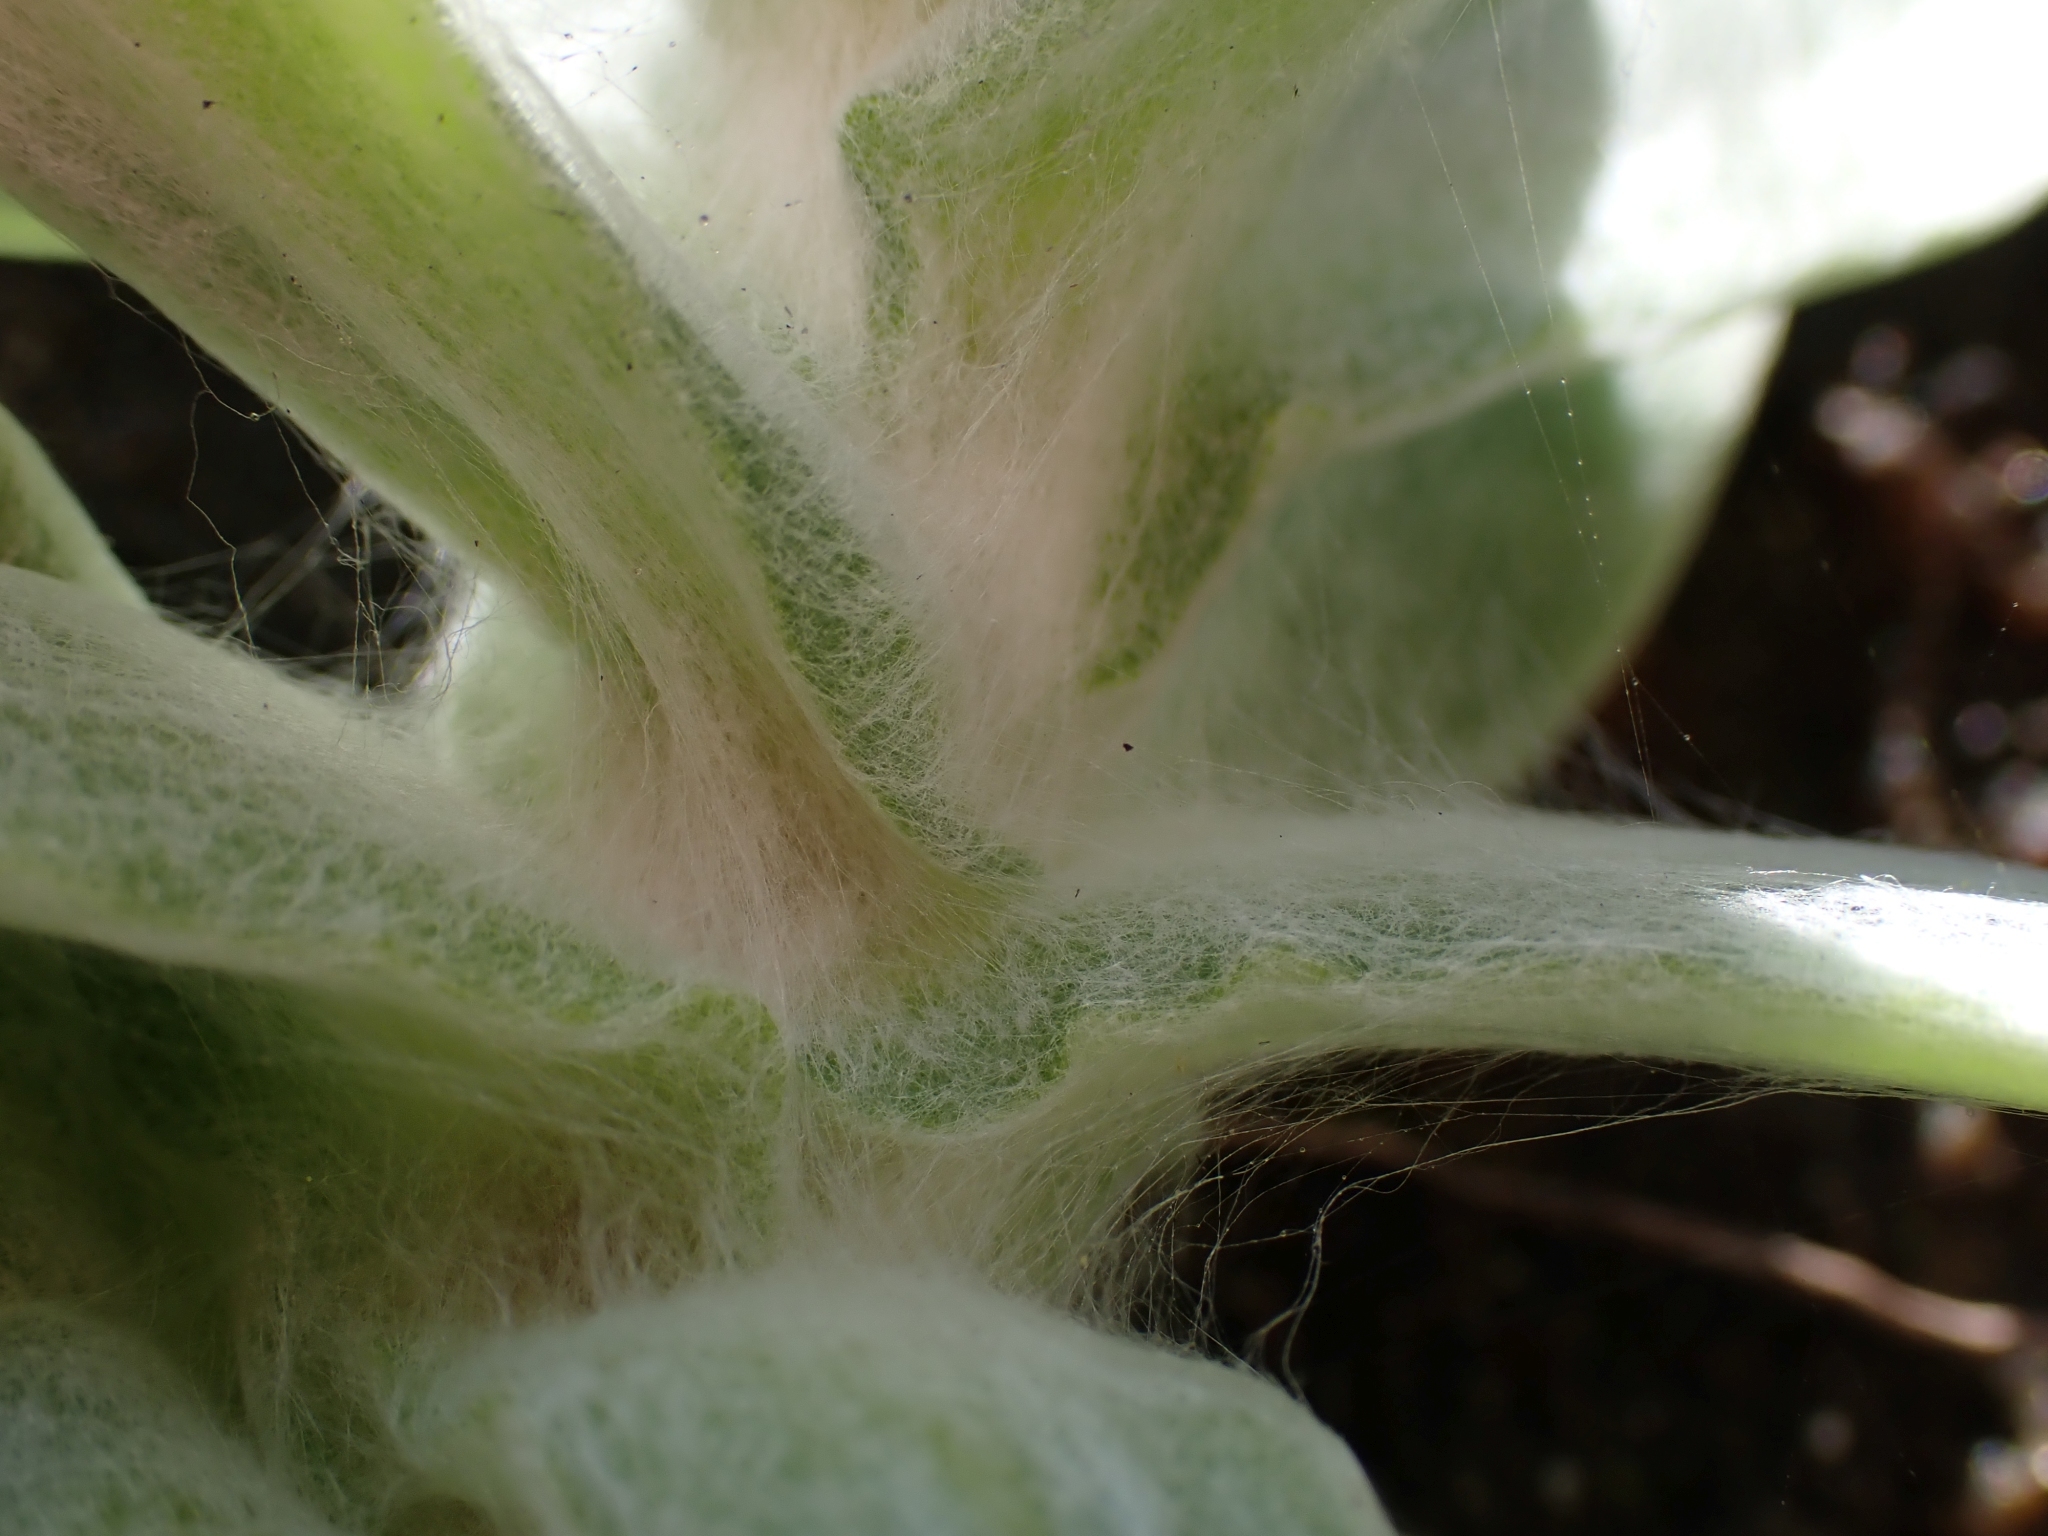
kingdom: Plantae
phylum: Tracheophyta
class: Magnoliopsida
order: Asterales
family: Asteraceae
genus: Anaphalis
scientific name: Anaphalis margaritacea
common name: Pearly everlasting
